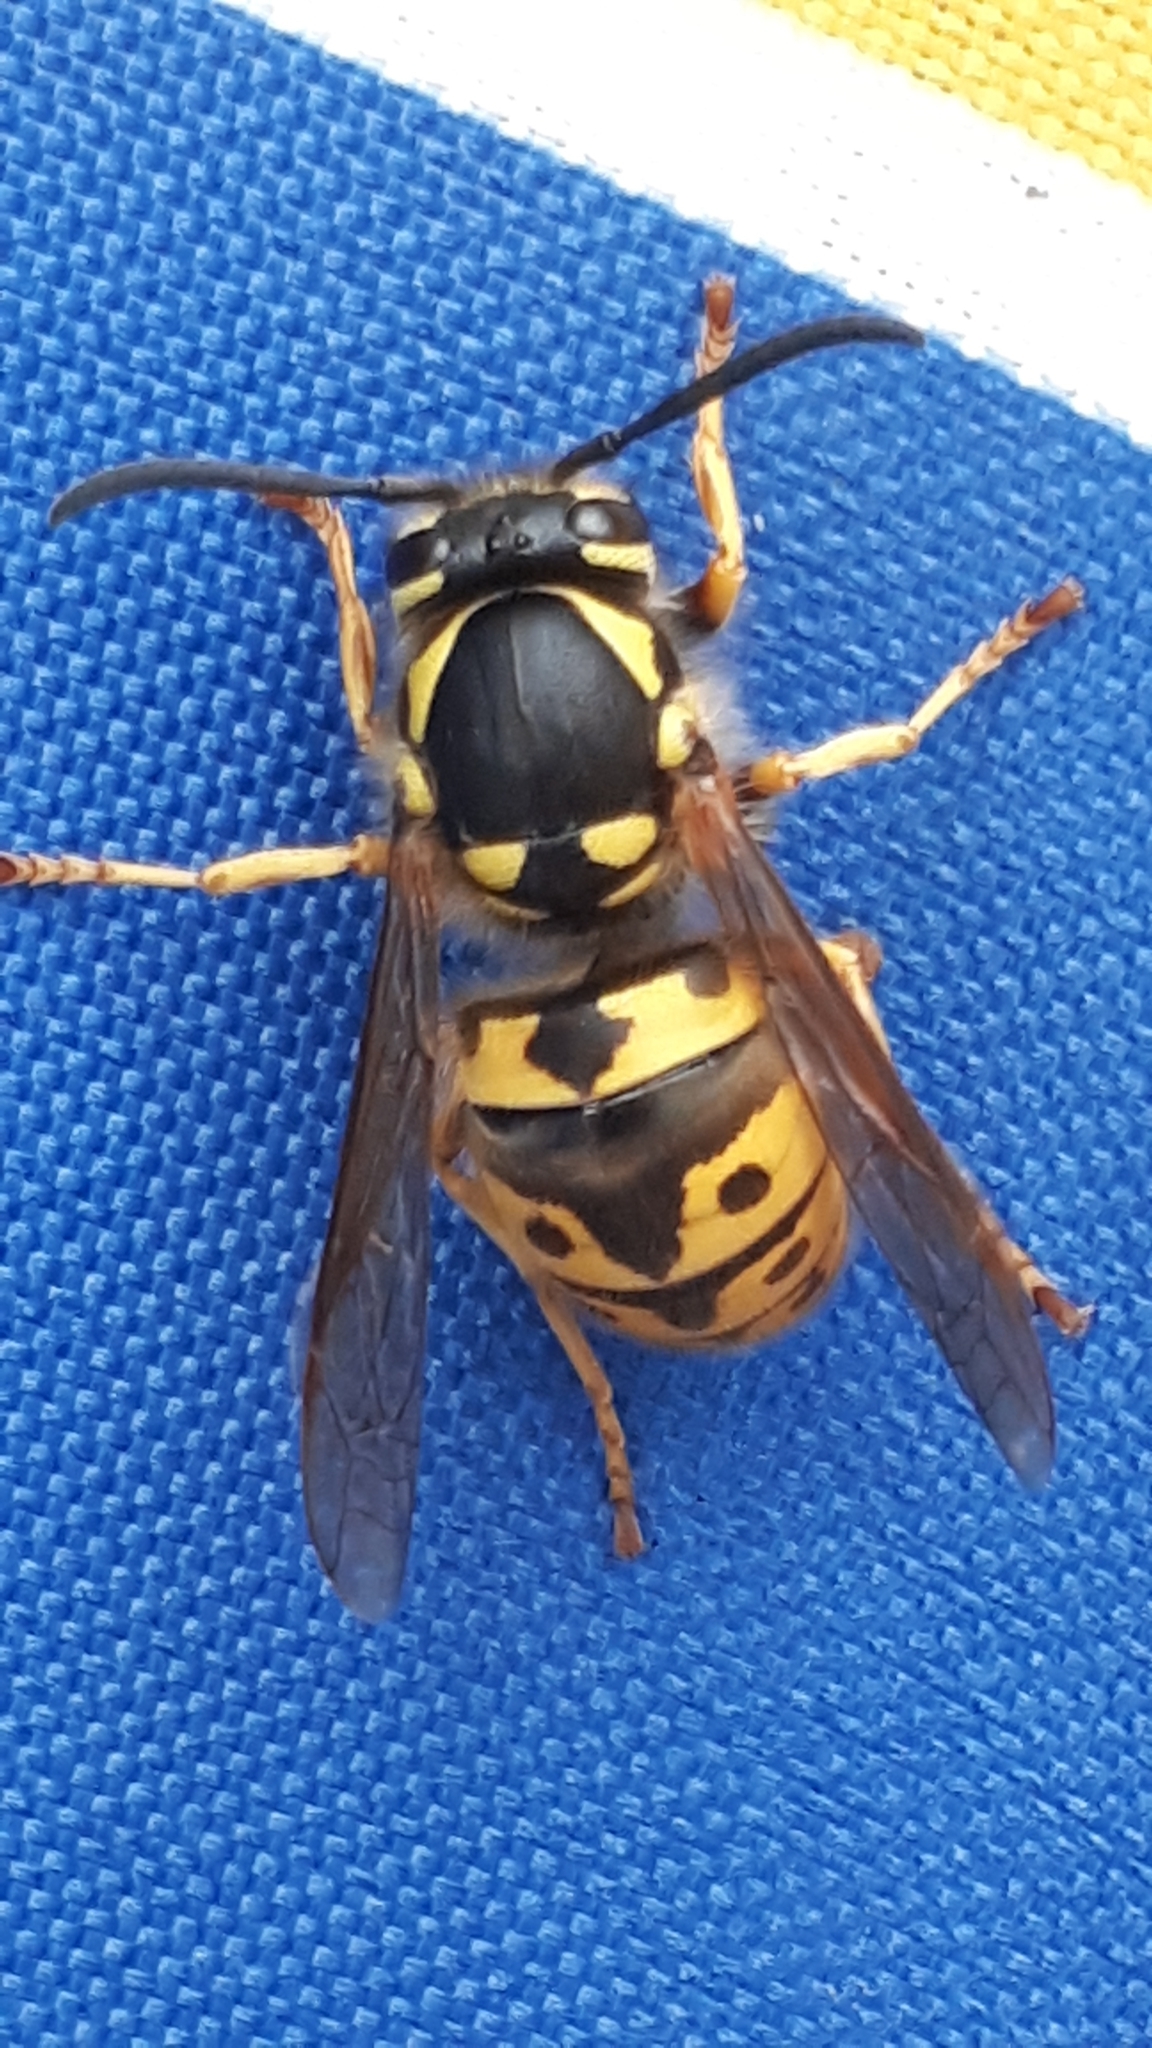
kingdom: Animalia
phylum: Arthropoda
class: Insecta
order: Hymenoptera
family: Vespidae
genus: Vespula
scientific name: Vespula germanica
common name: German wasp
